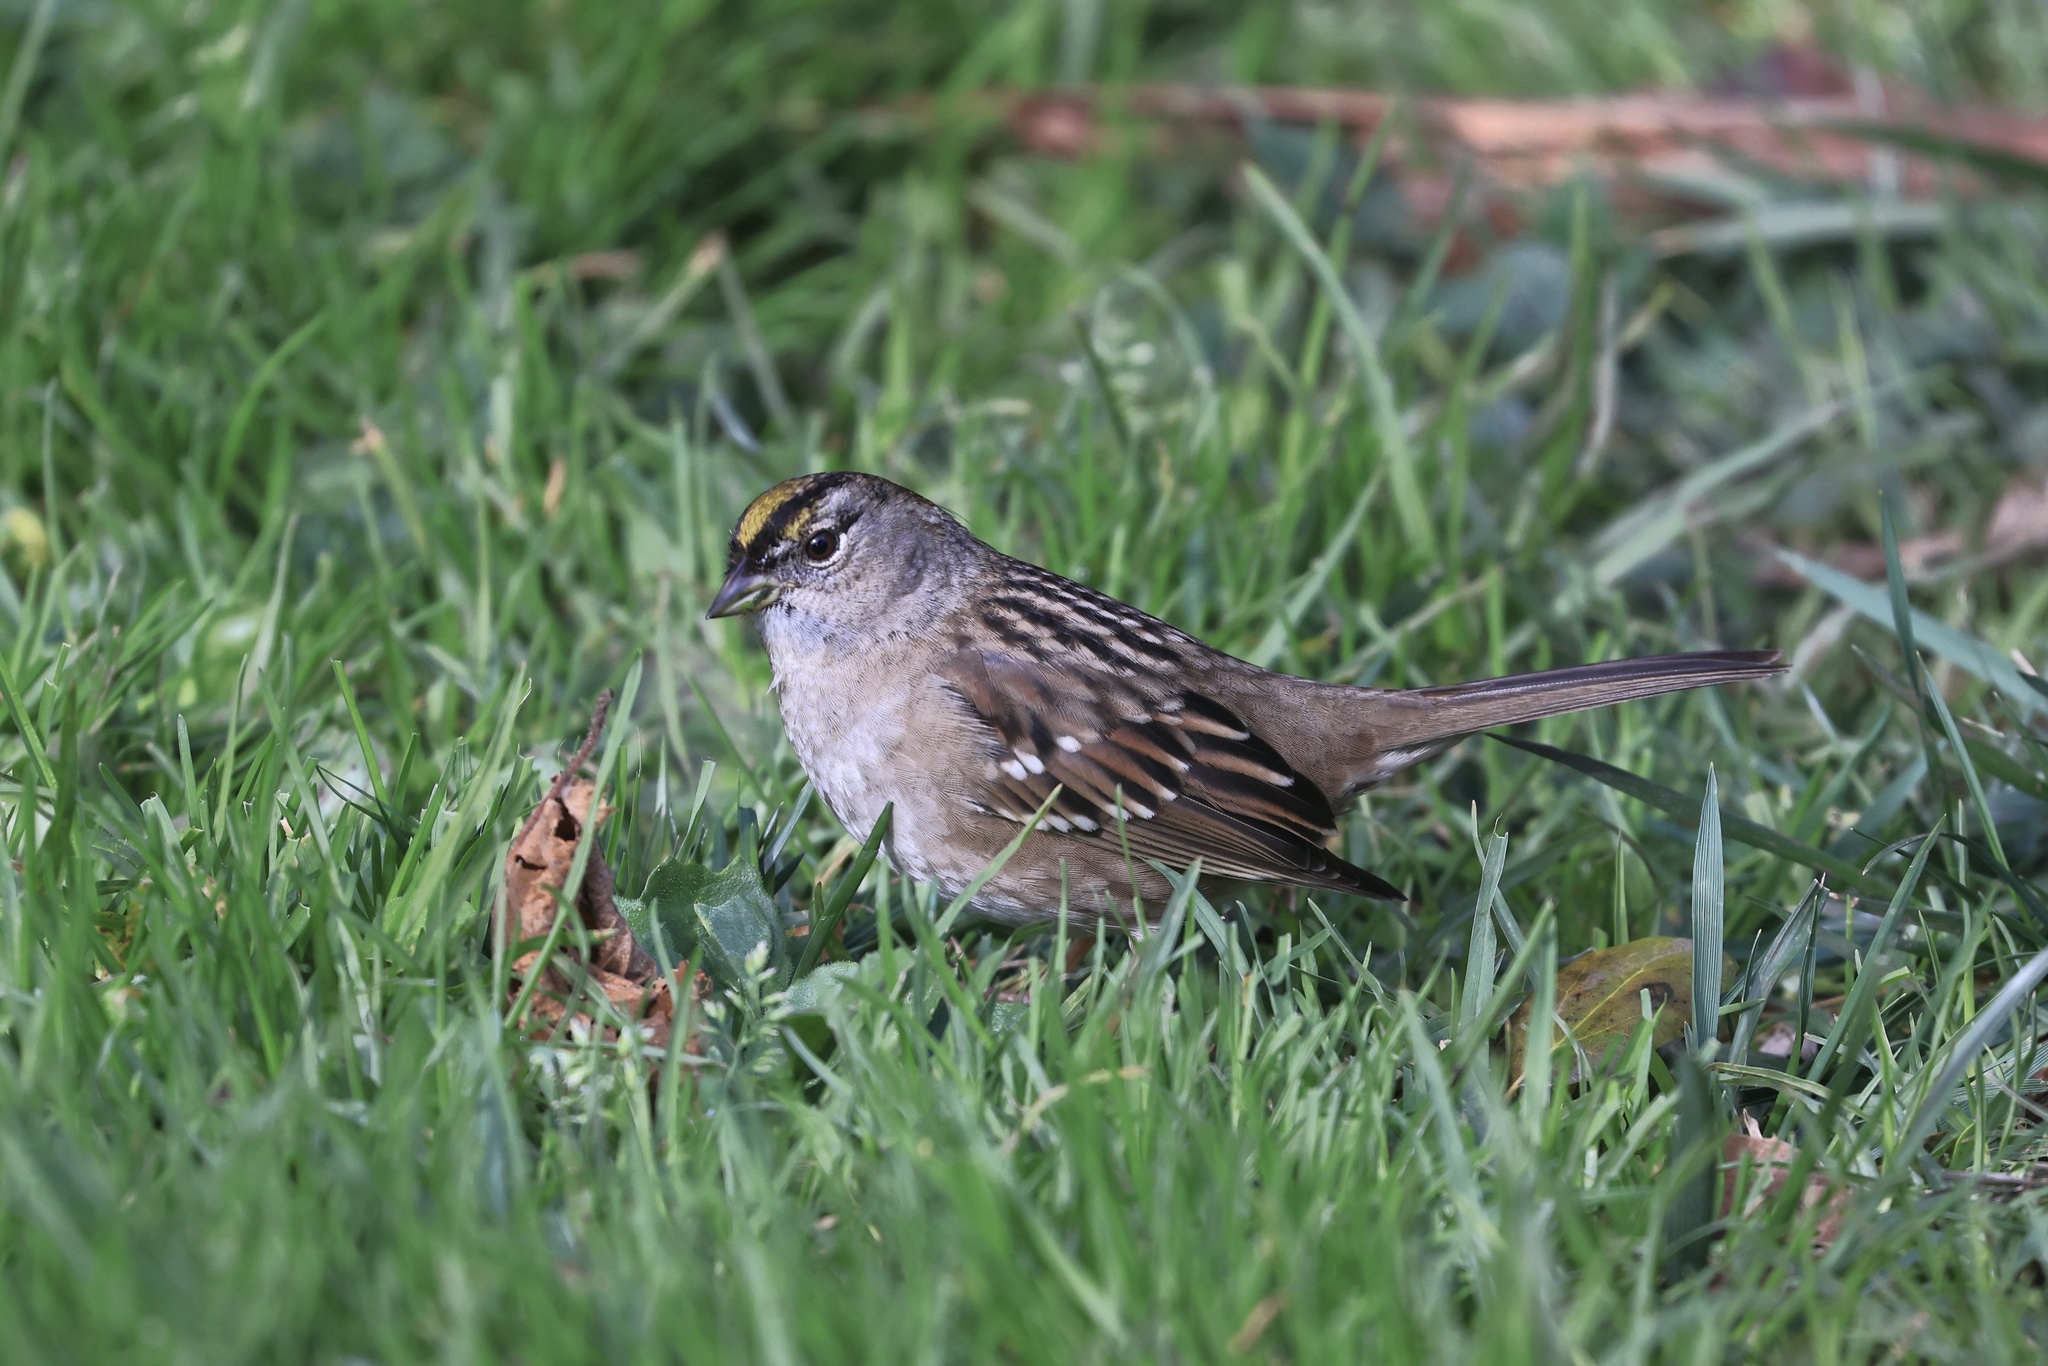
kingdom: Animalia
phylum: Chordata
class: Aves
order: Passeriformes
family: Passerellidae
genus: Zonotrichia
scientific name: Zonotrichia atricapilla
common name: Golden-crowned sparrow
